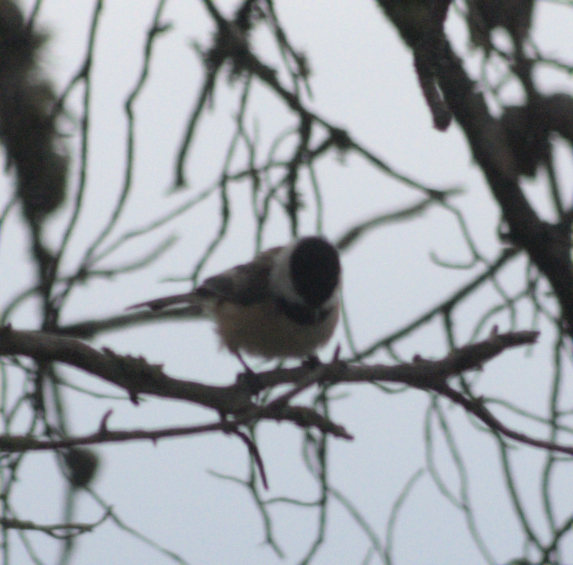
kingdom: Animalia
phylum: Chordata
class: Aves
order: Passeriformes
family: Paridae
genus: Poecile
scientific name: Poecile atricapillus
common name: Black-capped chickadee
